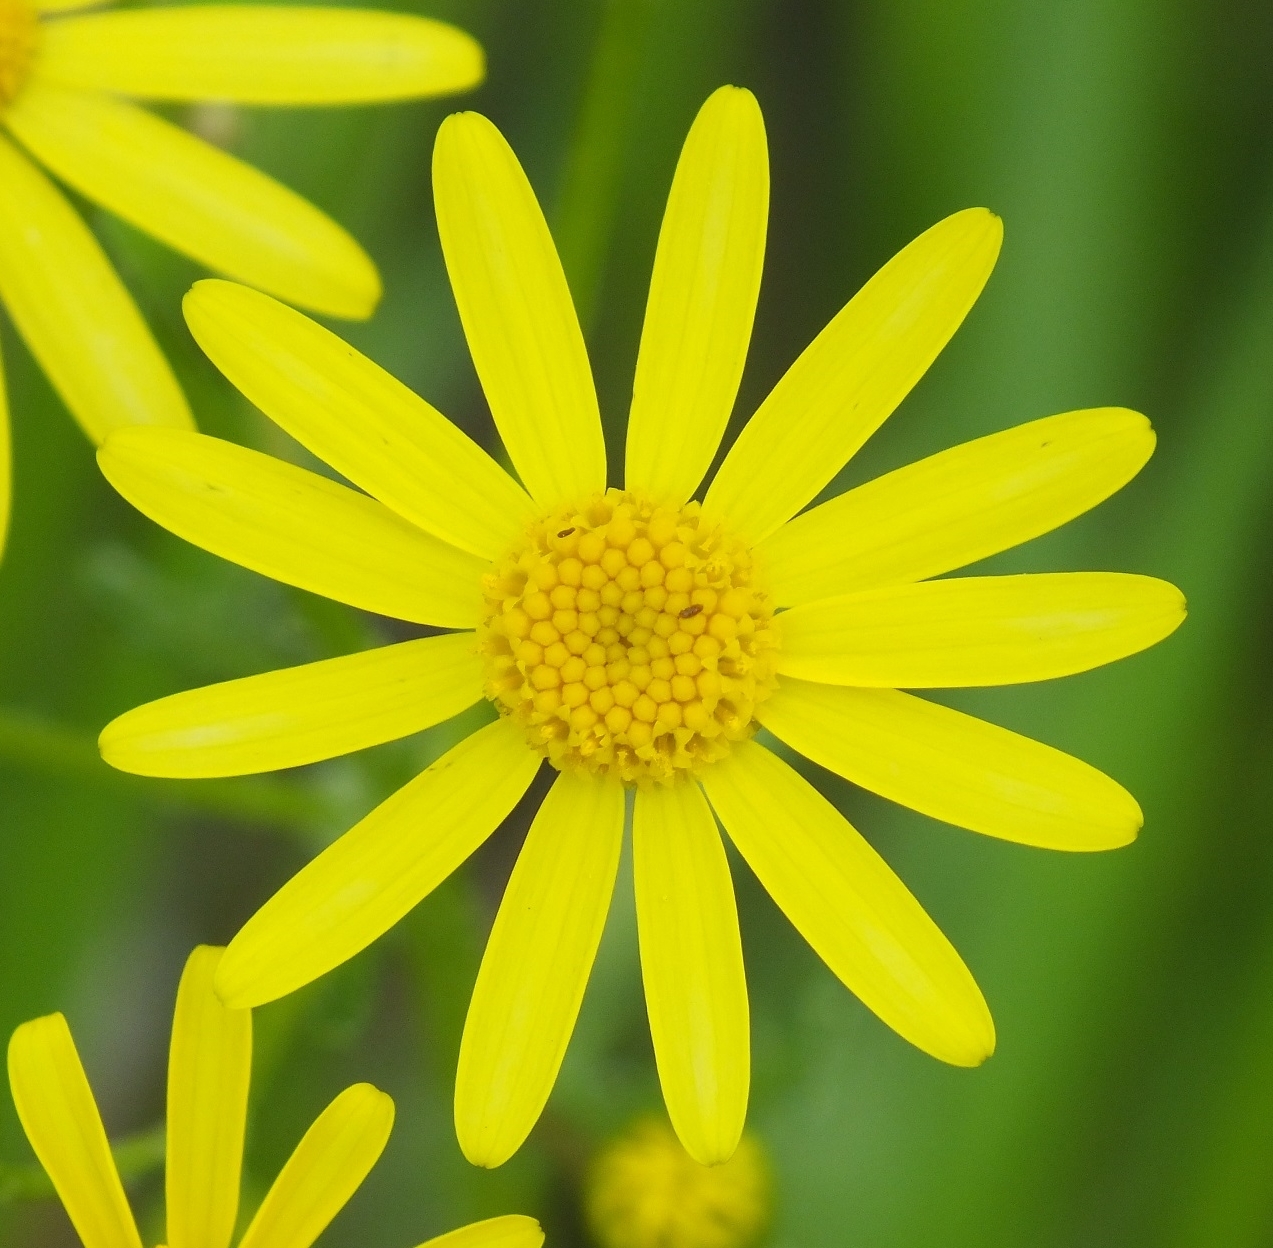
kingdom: Plantae
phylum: Tracheophyta
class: Magnoliopsida
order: Asterales
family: Asteraceae
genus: Senecio
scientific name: Senecio vernalis
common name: Eastern groundsel
